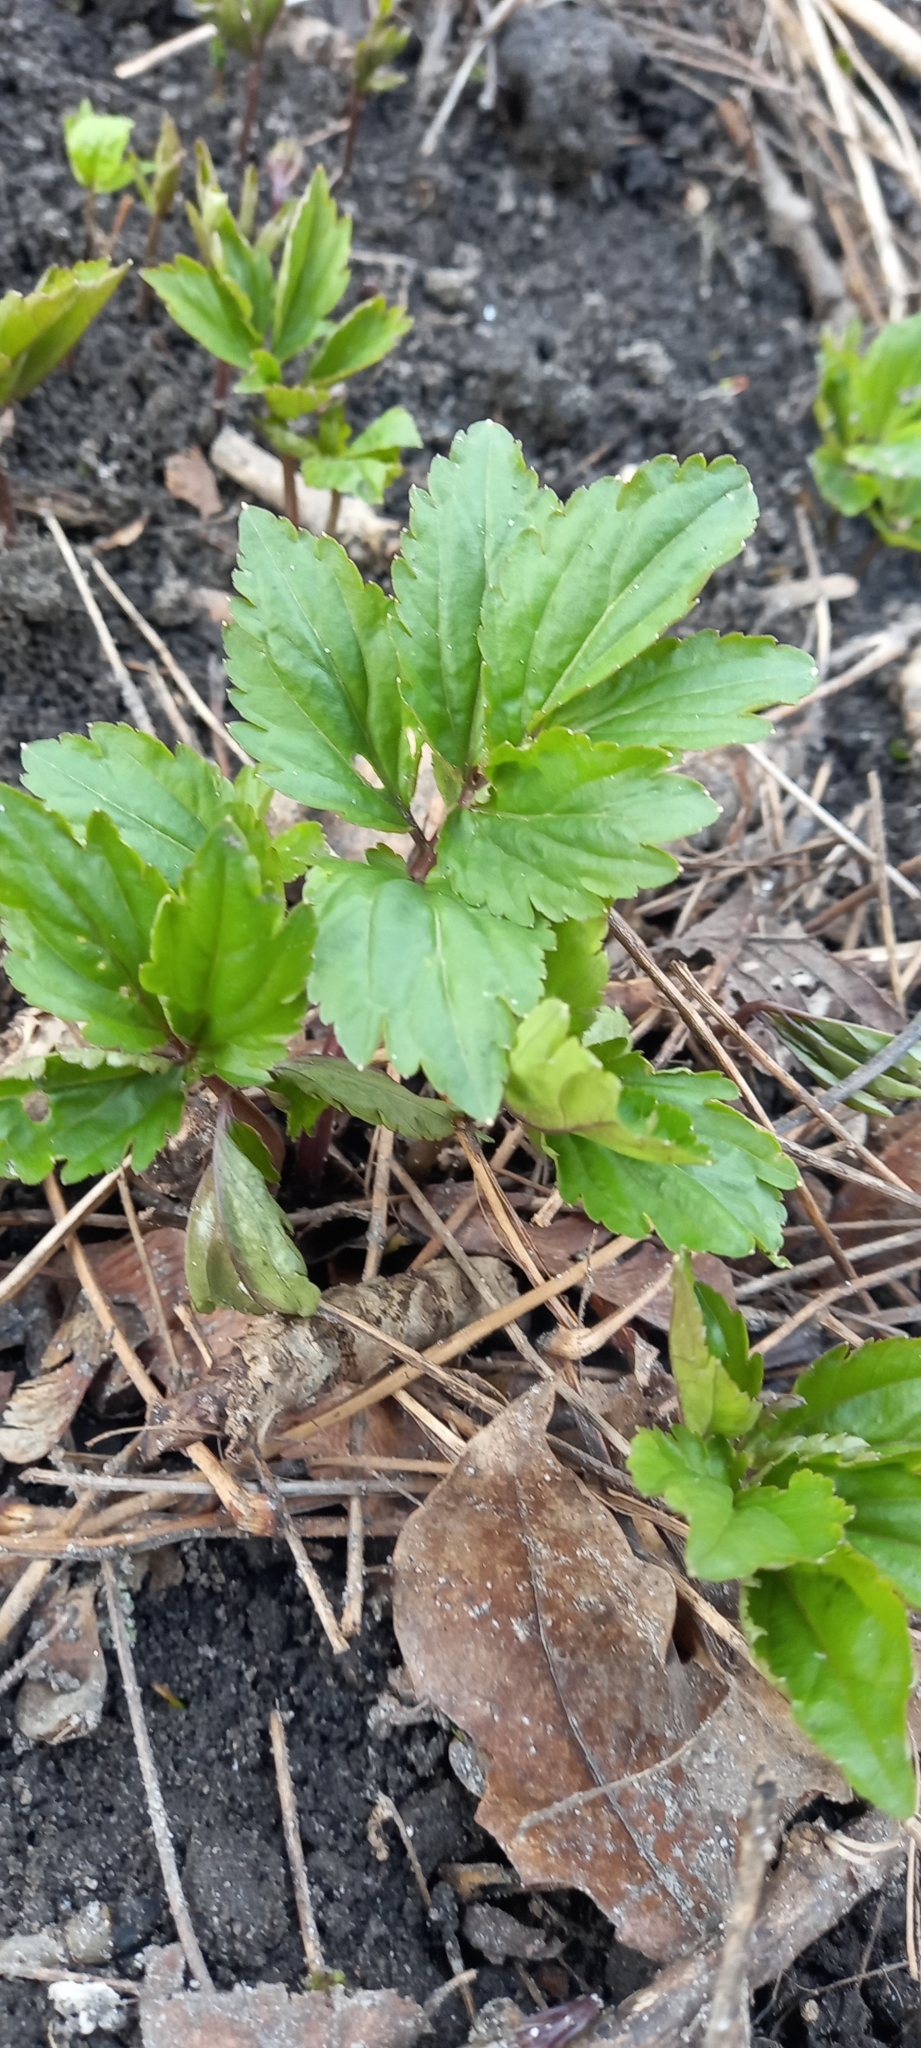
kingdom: Plantae
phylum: Tracheophyta
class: Magnoliopsida
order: Brassicales
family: Brassicaceae
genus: Cardamine
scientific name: Cardamine quinquefolia
